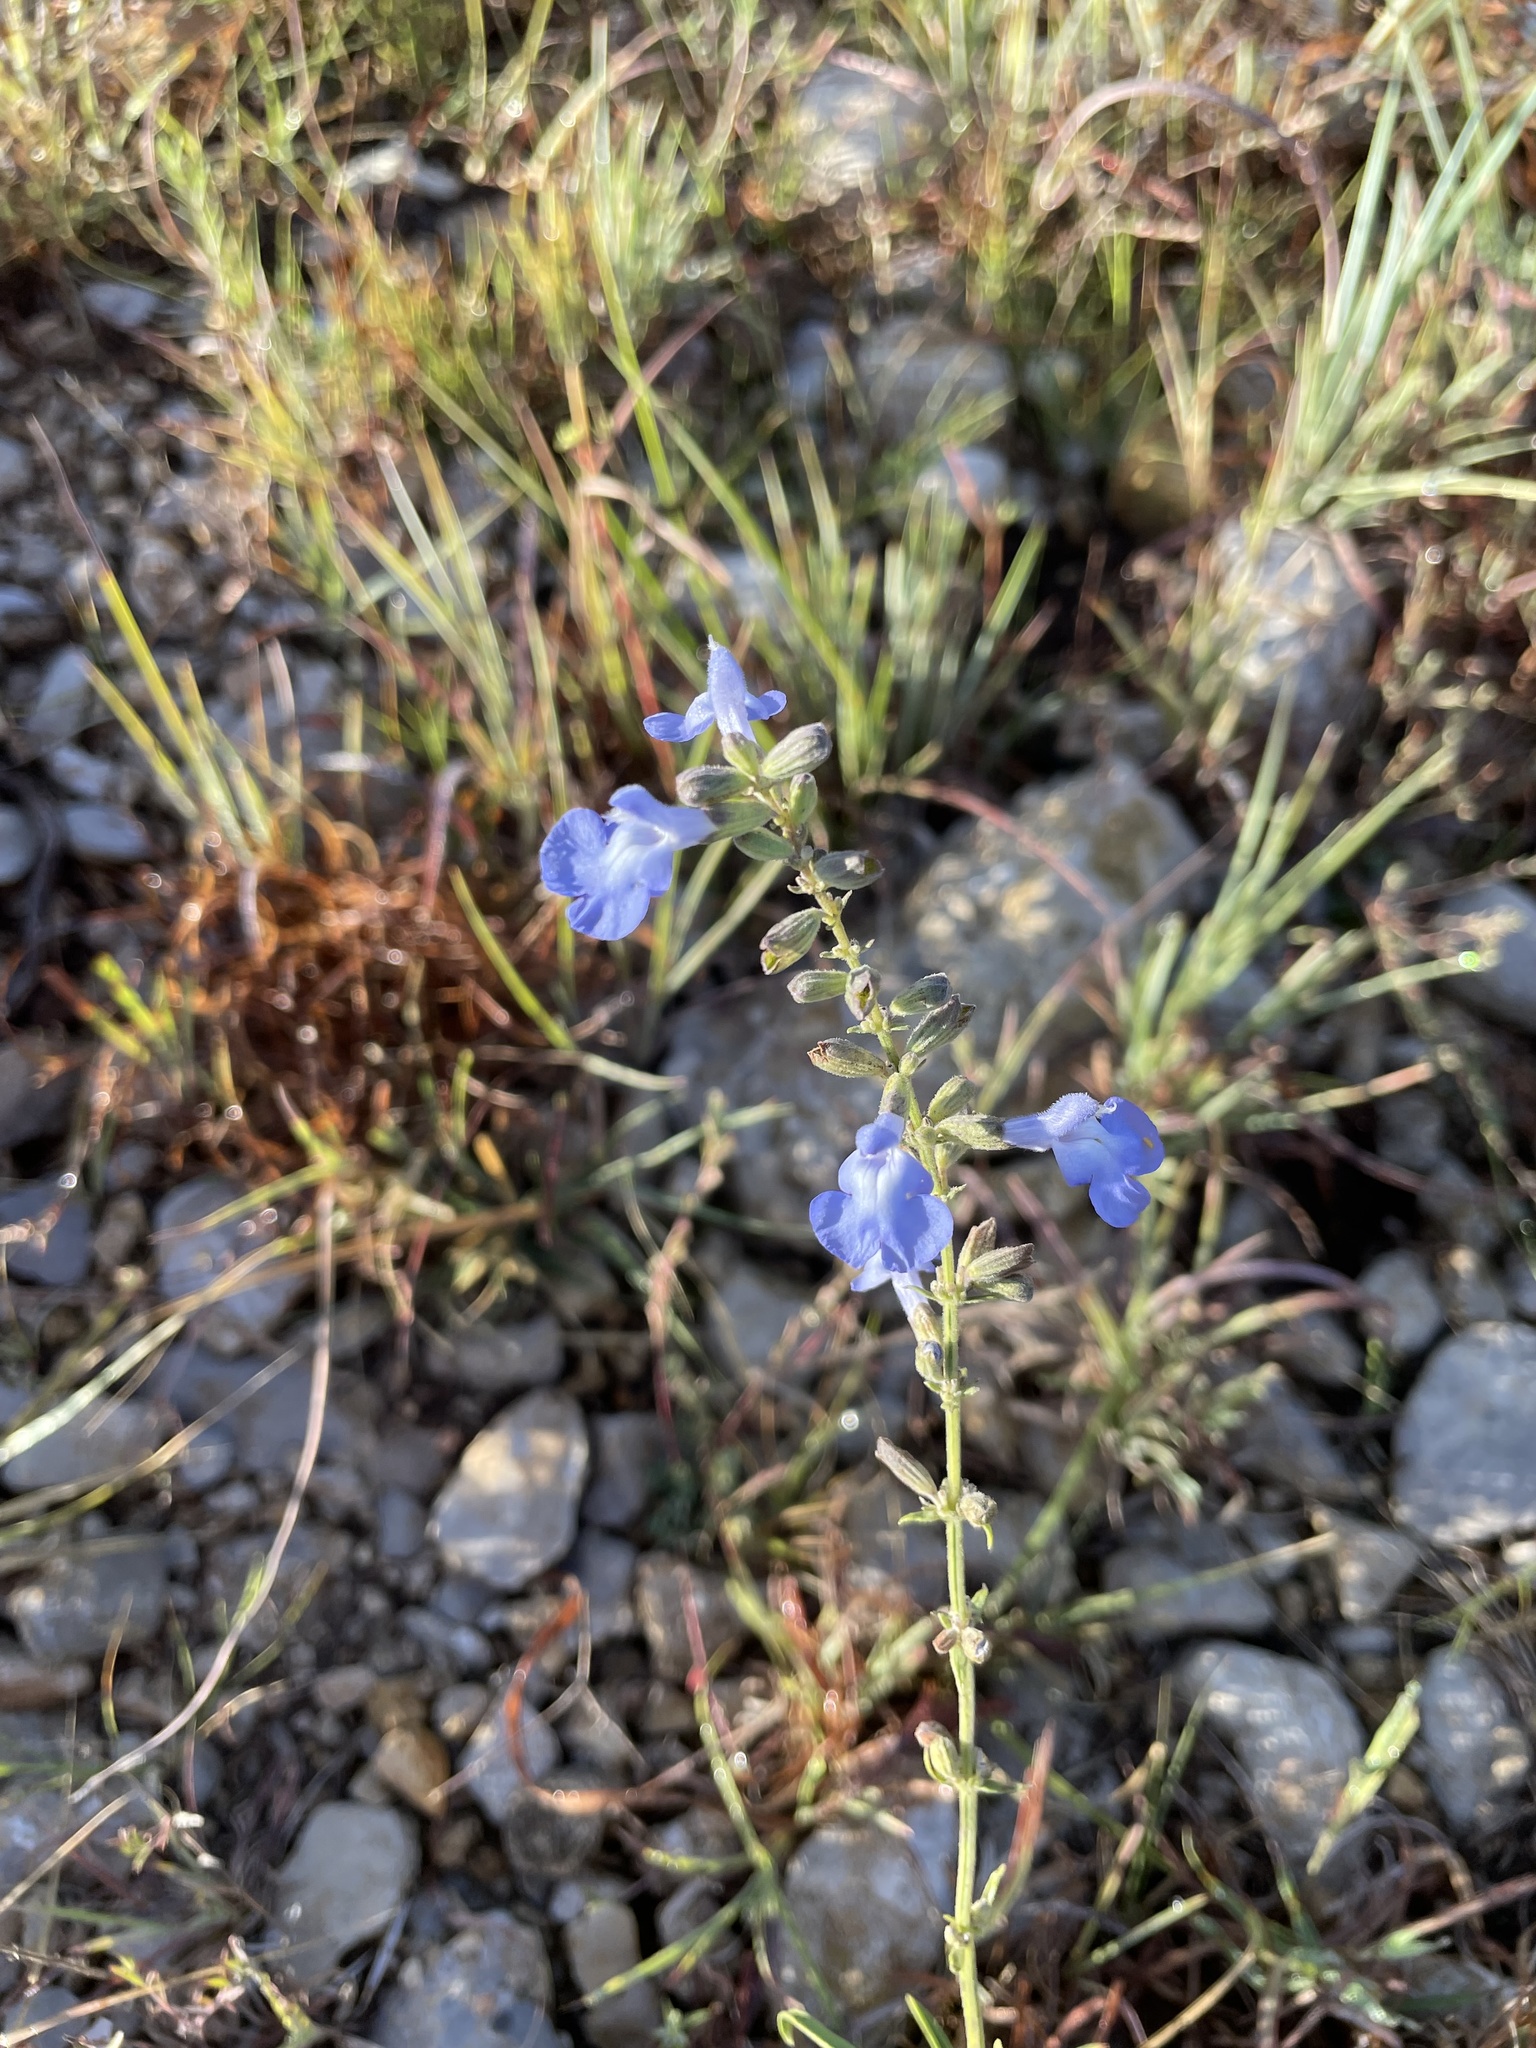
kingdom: Plantae
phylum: Tracheophyta
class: Magnoliopsida
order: Lamiales
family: Lamiaceae
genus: Salvia
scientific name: Salvia azurea
